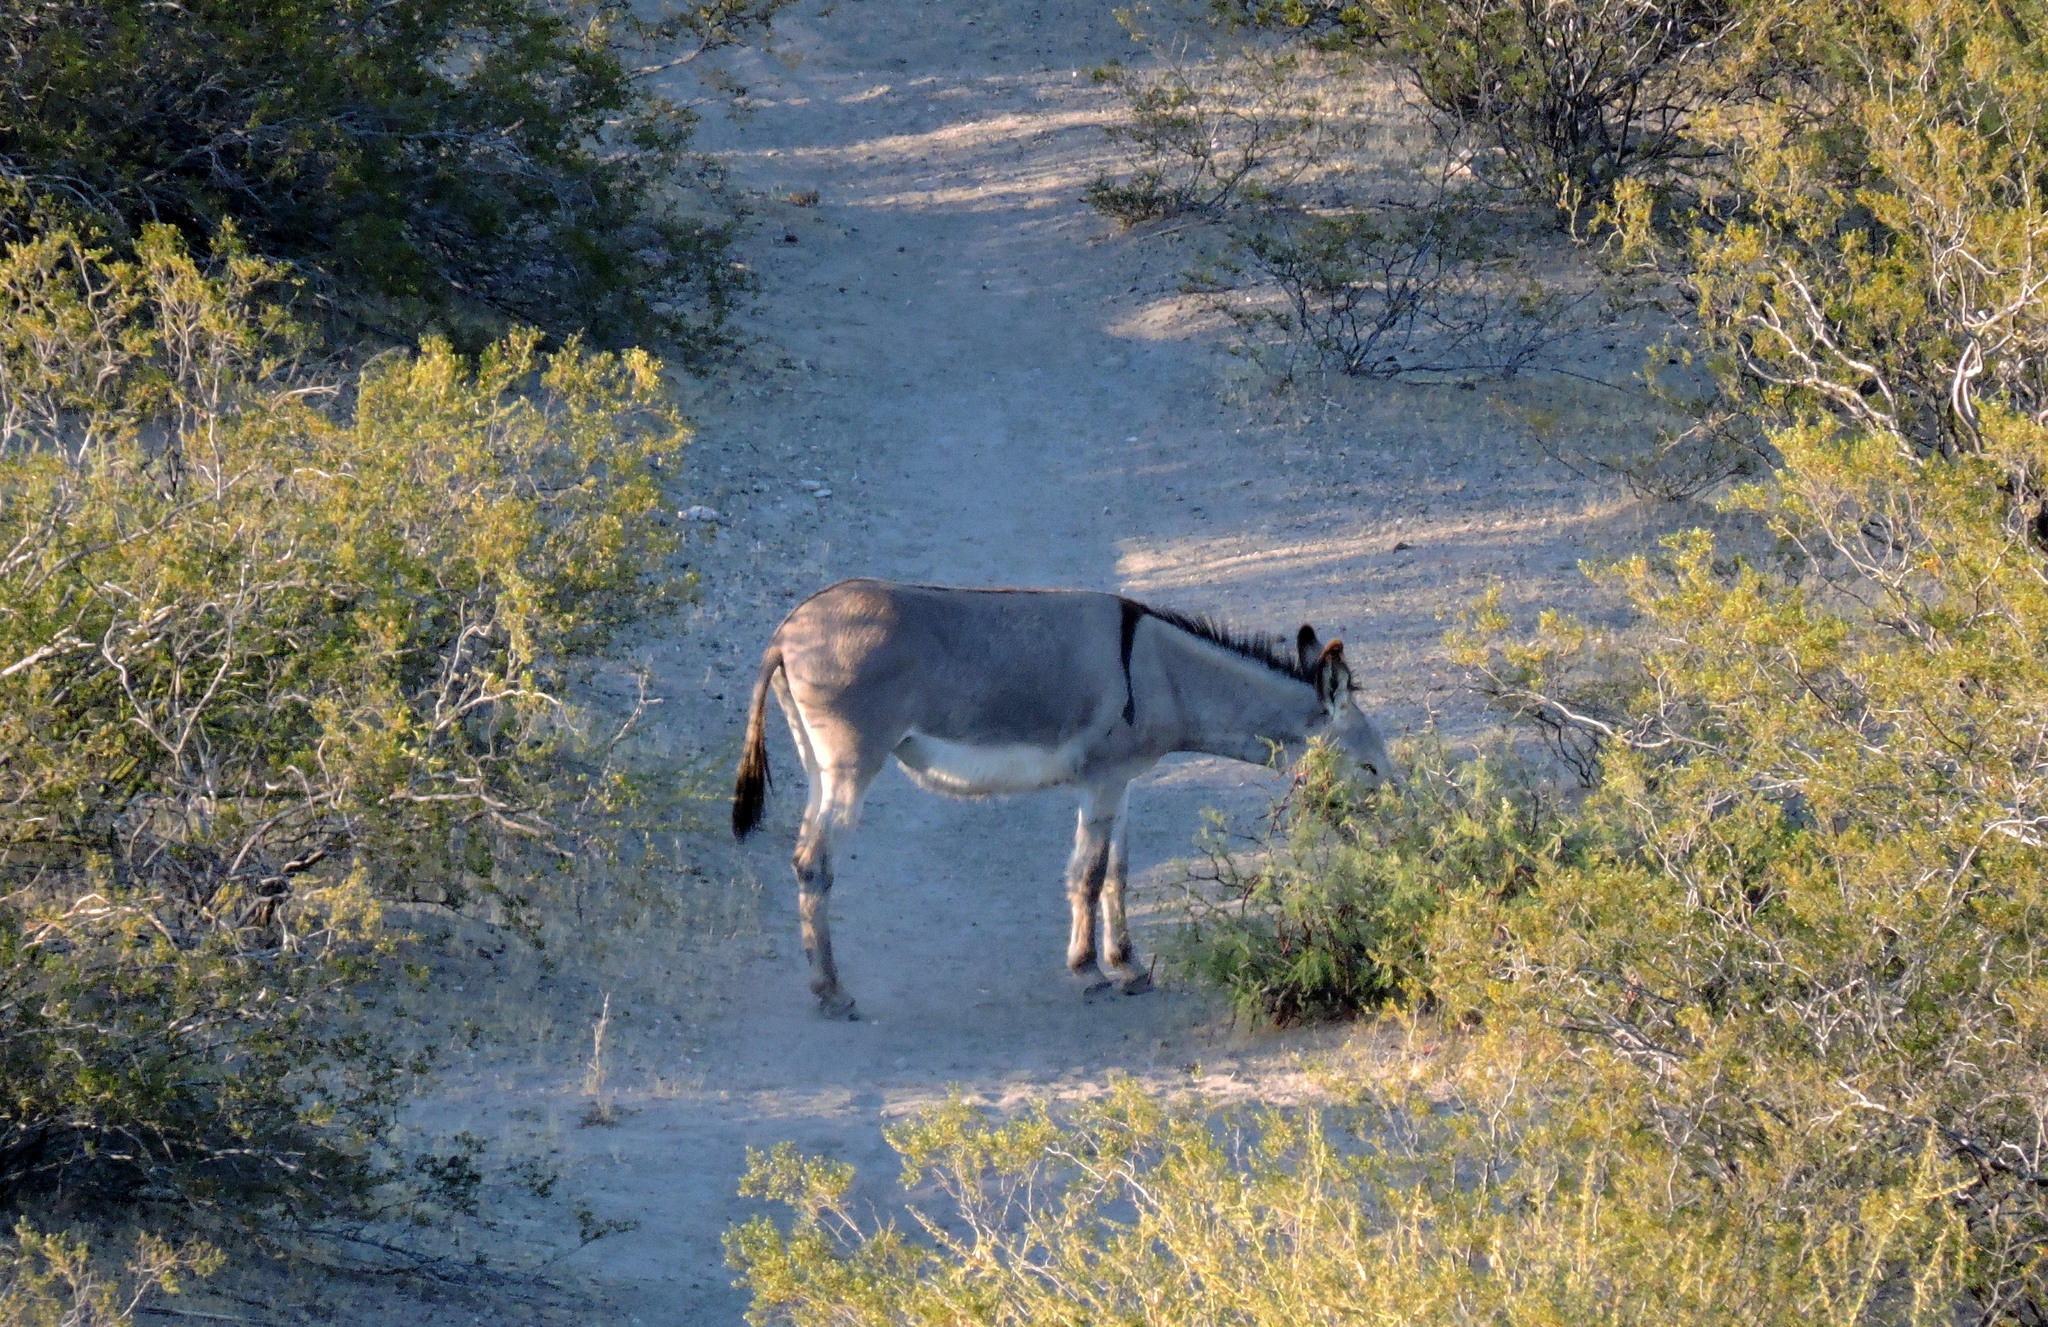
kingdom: Animalia
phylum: Chordata
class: Mammalia
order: Perissodactyla
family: Equidae
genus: Equus
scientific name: Equus asinus
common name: Ass
